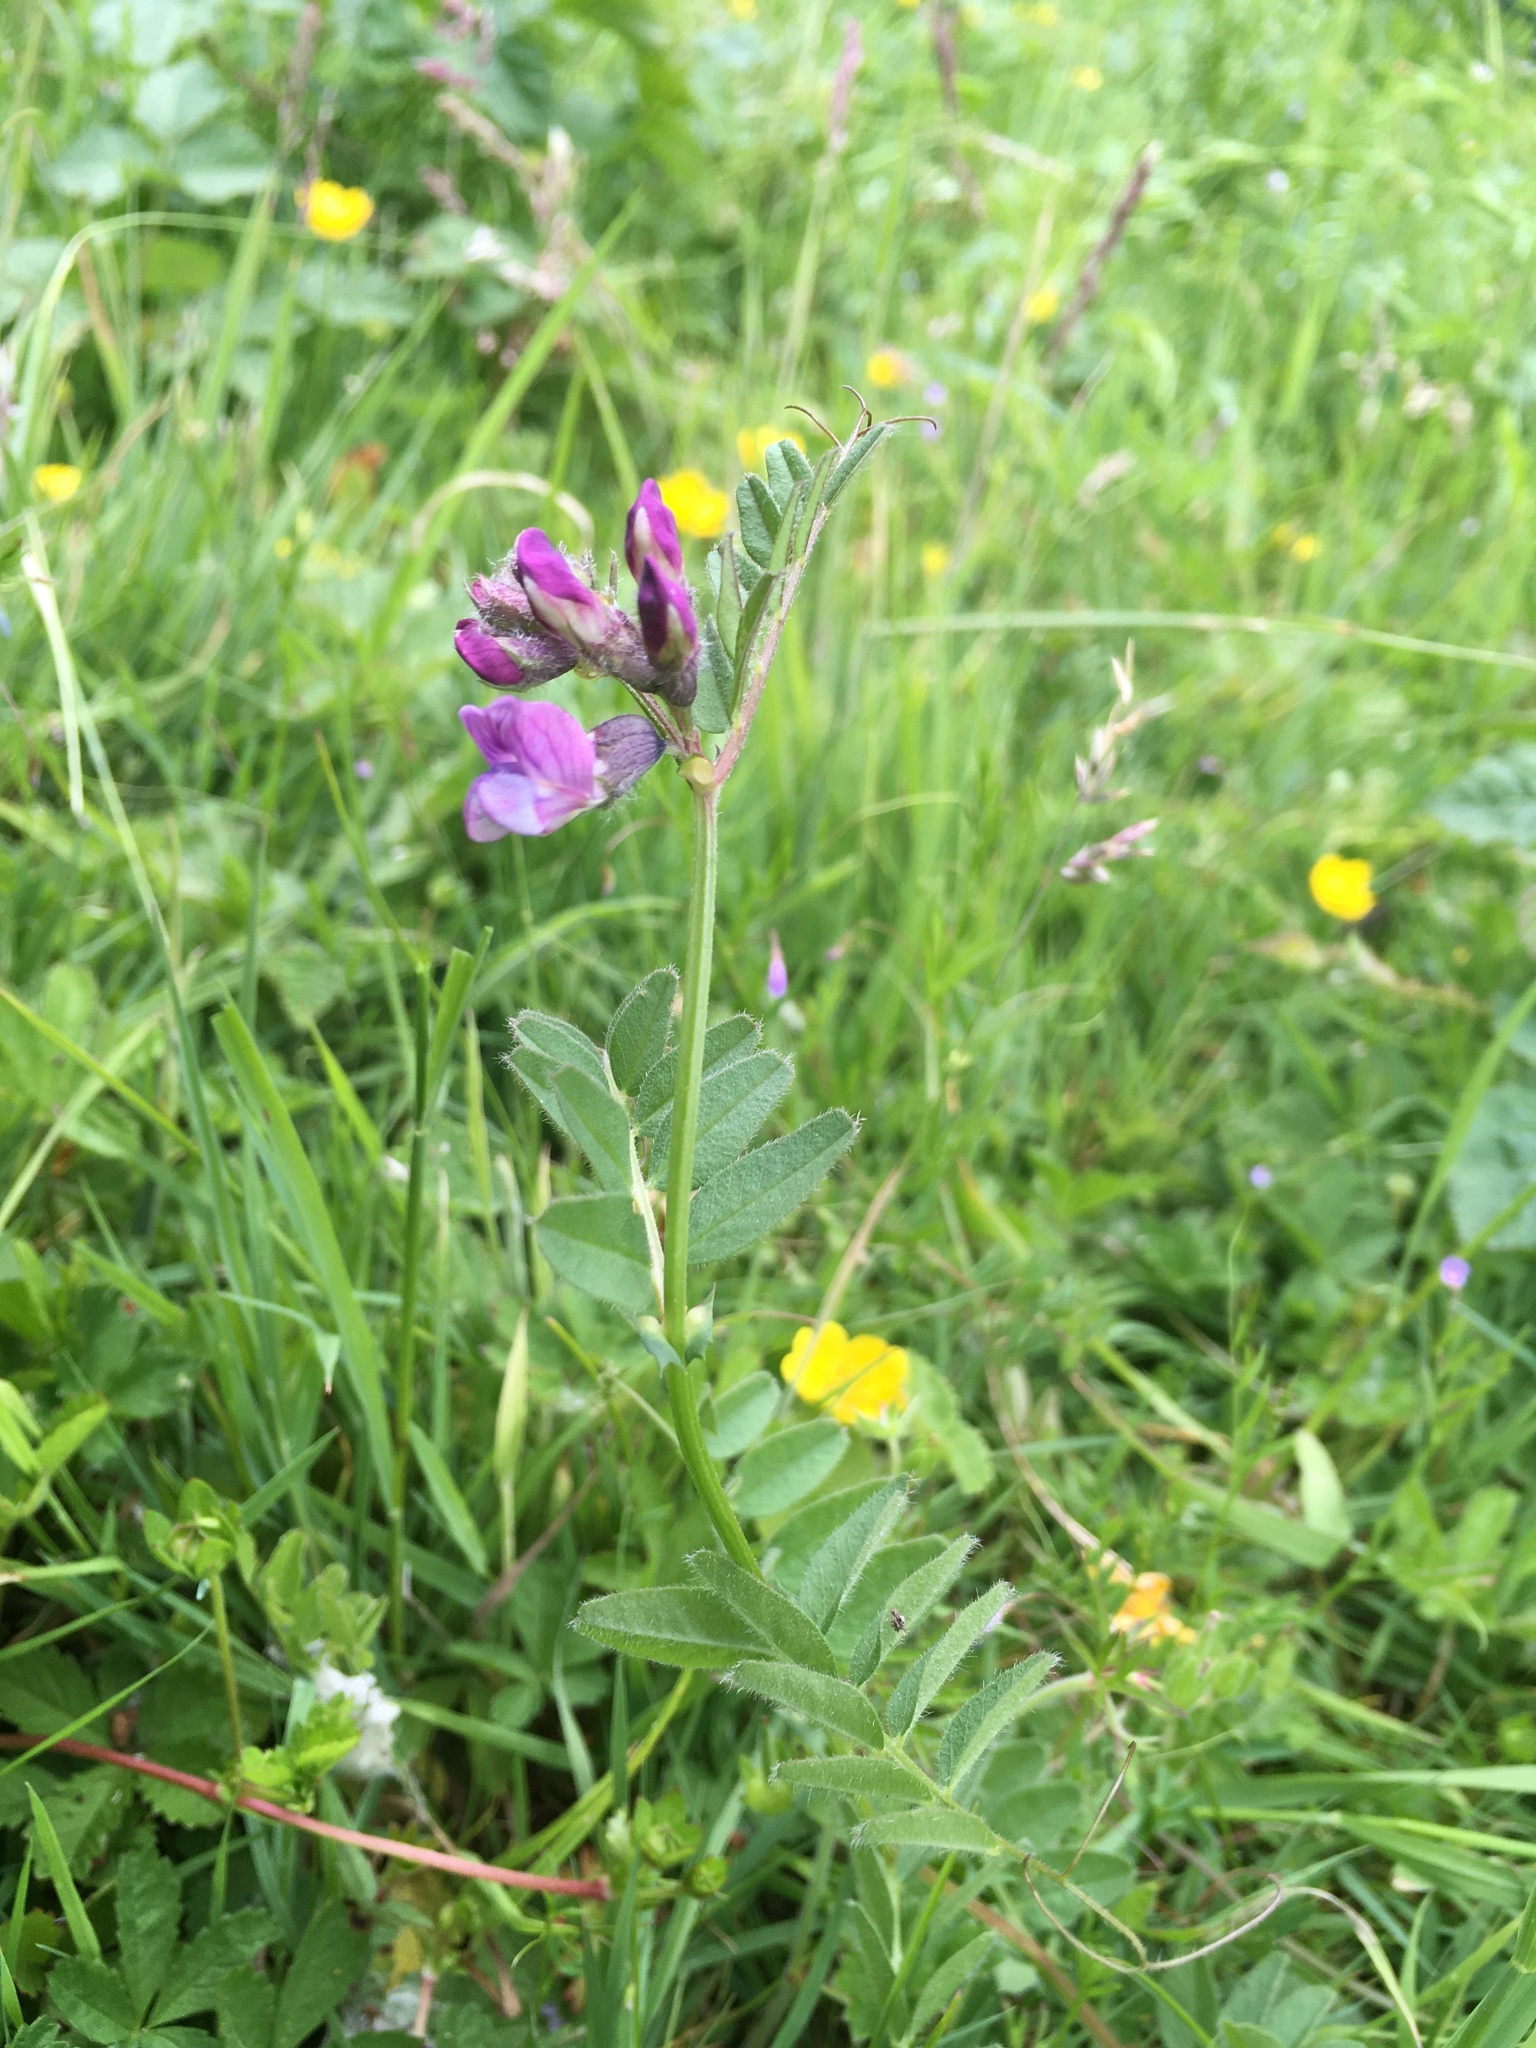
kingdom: Plantae
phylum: Tracheophyta
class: Magnoliopsida
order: Fabales
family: Fabaceae
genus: Vicia
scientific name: Vicia sepium
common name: Bush vetch
